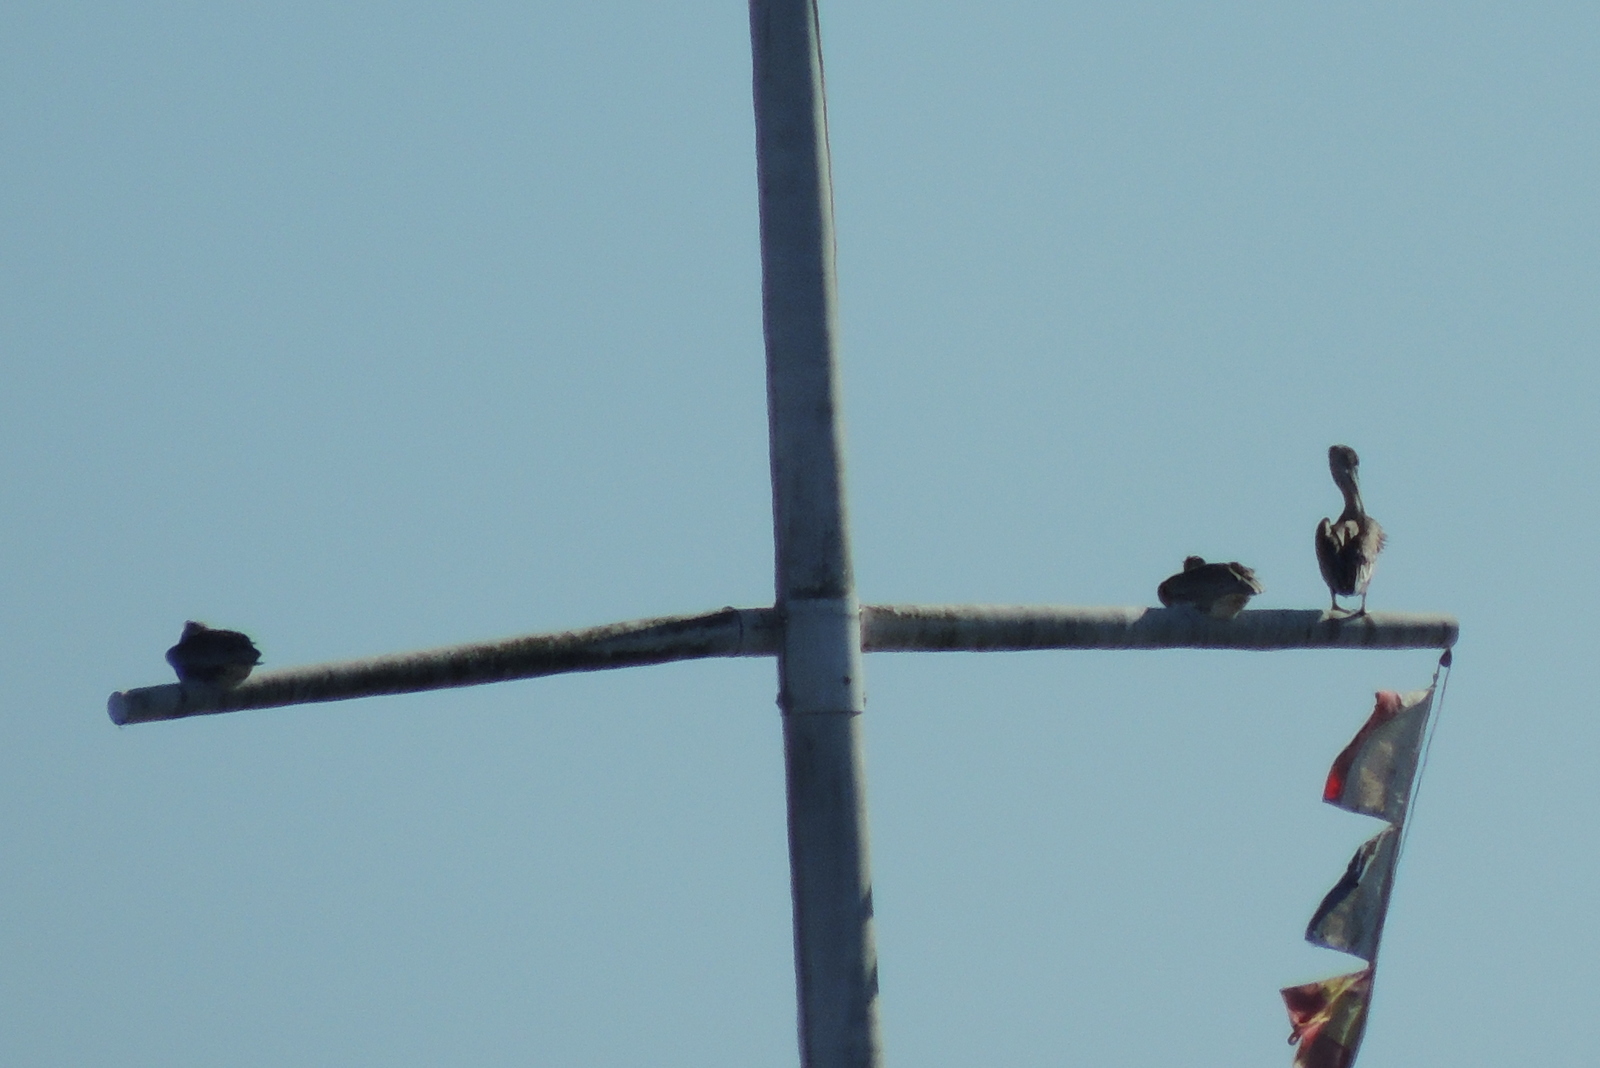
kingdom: Animalia
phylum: Chordata
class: Aves
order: Pelecaniformes
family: Pelecanidae
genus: Pelecanus
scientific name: Pelecanus occidentalis
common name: Brown pelican
